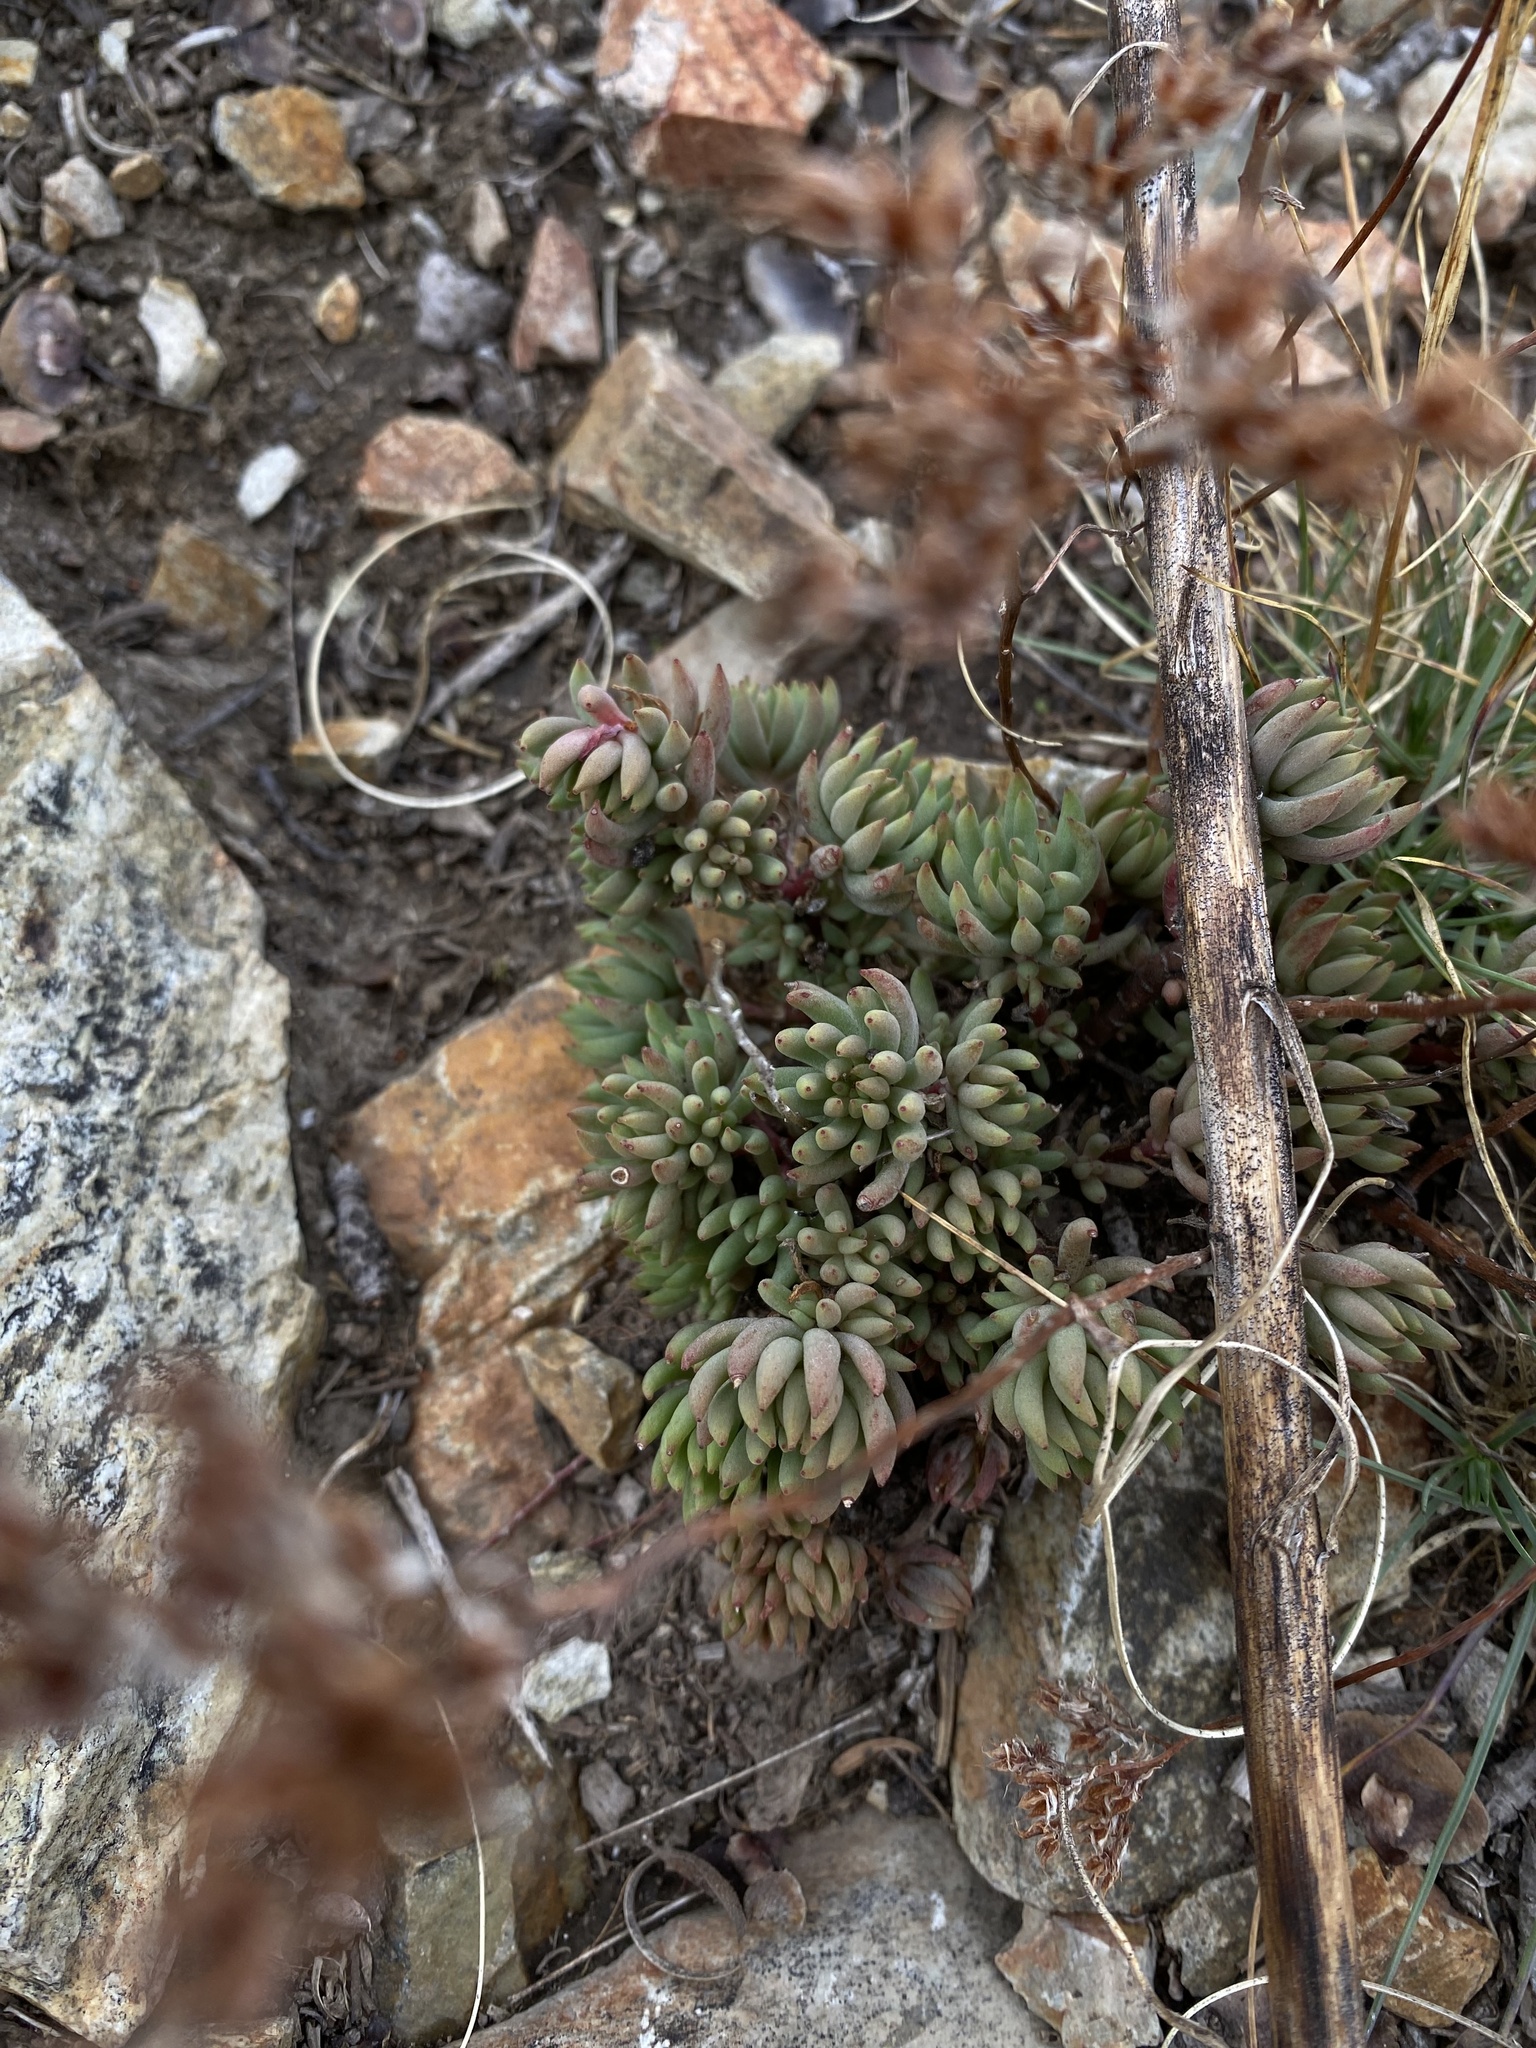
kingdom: Plantae
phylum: Tracheophyta
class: Magnoliopsida
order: Saxifragales
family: Crassulaceae
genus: Sedum
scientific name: Sedum lanceolatum
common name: Common stonecrop
